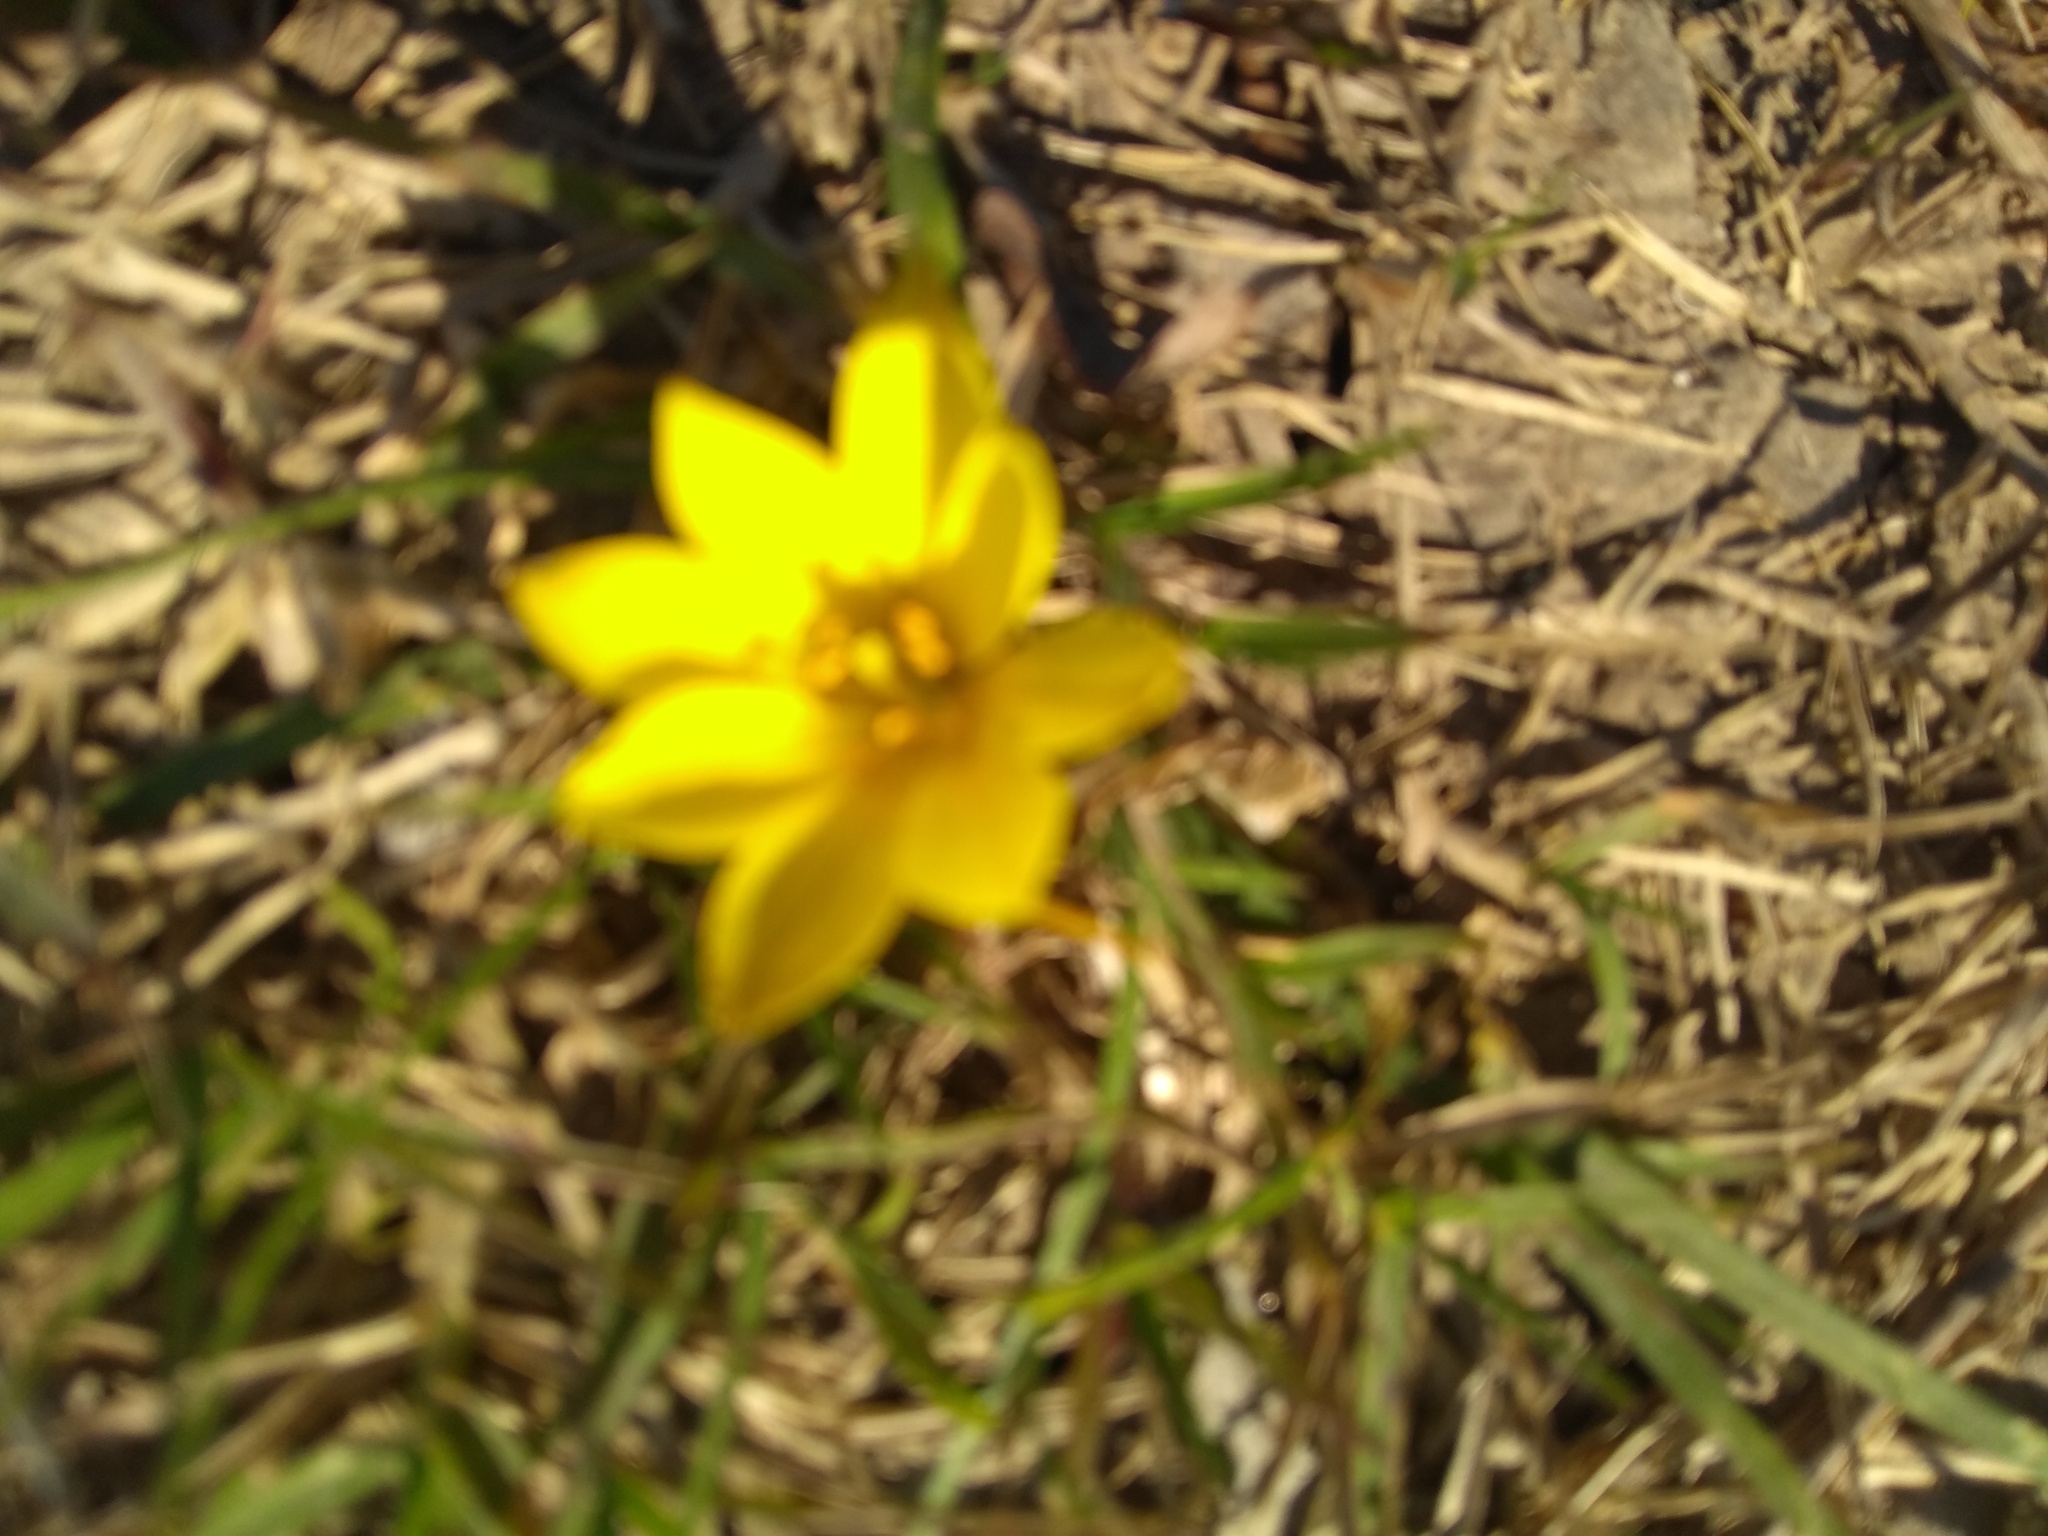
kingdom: Plantae
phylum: Tracheophyta
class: Liliopsida
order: Asparagales
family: Amaryllidaceae
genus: Nothoscordum
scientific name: Nothoscordum dialystemon
